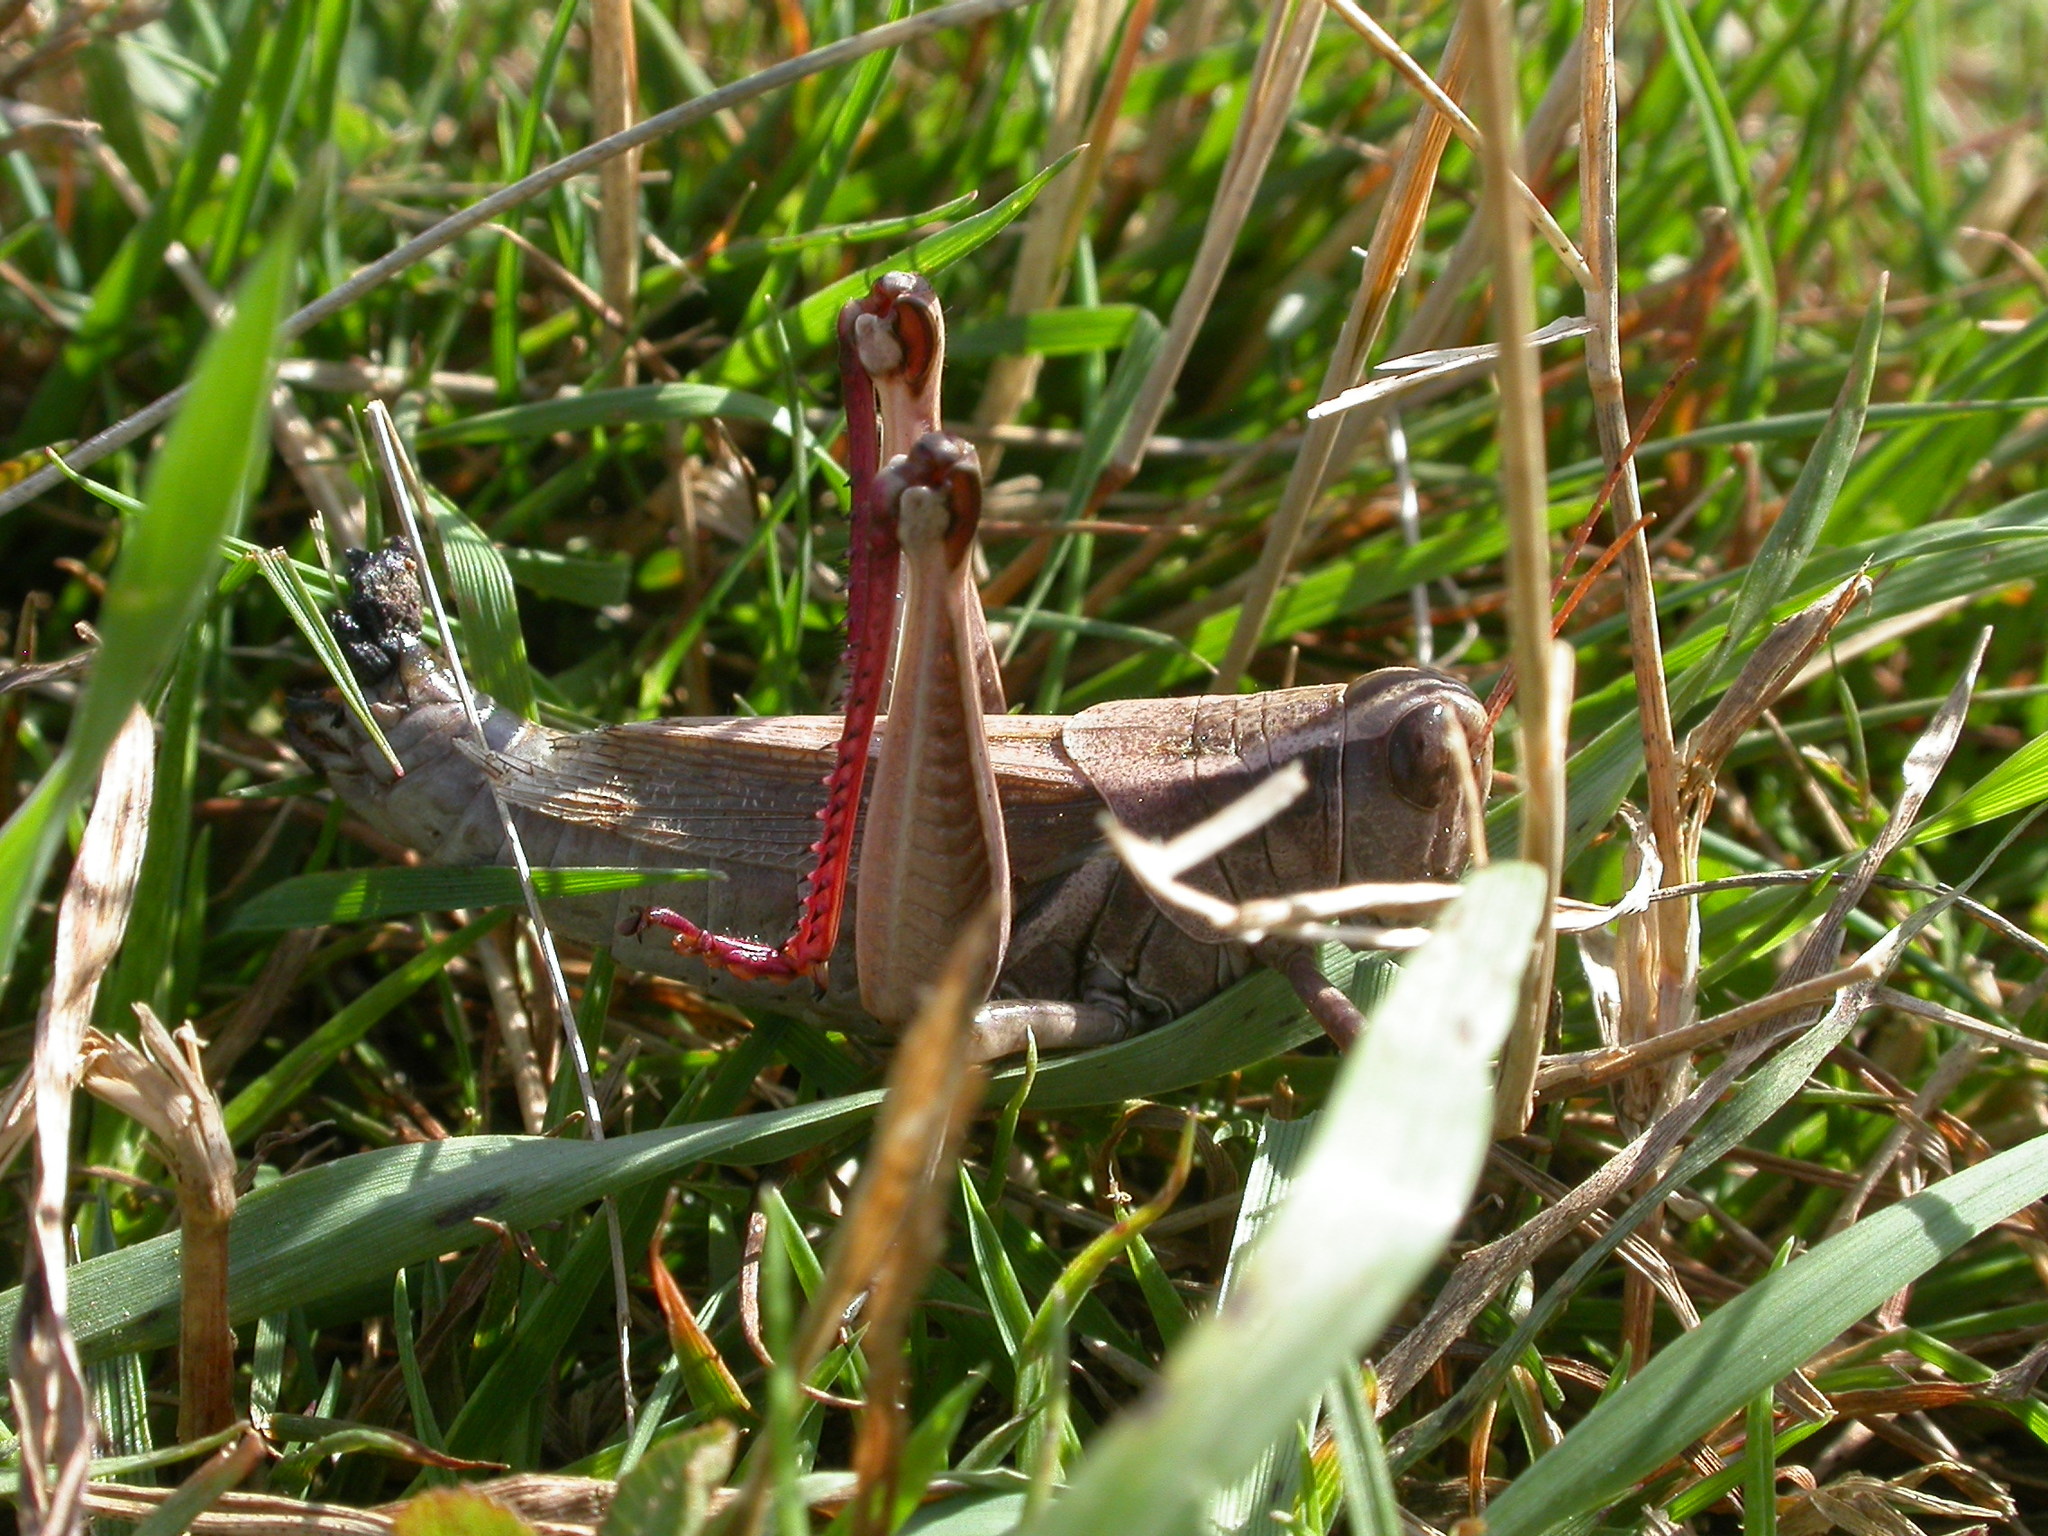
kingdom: Animalia
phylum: Arthropoda
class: Insecta
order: Orthoptera
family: Acrididae
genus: Melanoplus
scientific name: Melanoplus bivittatus
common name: Two-striped grasshopper
